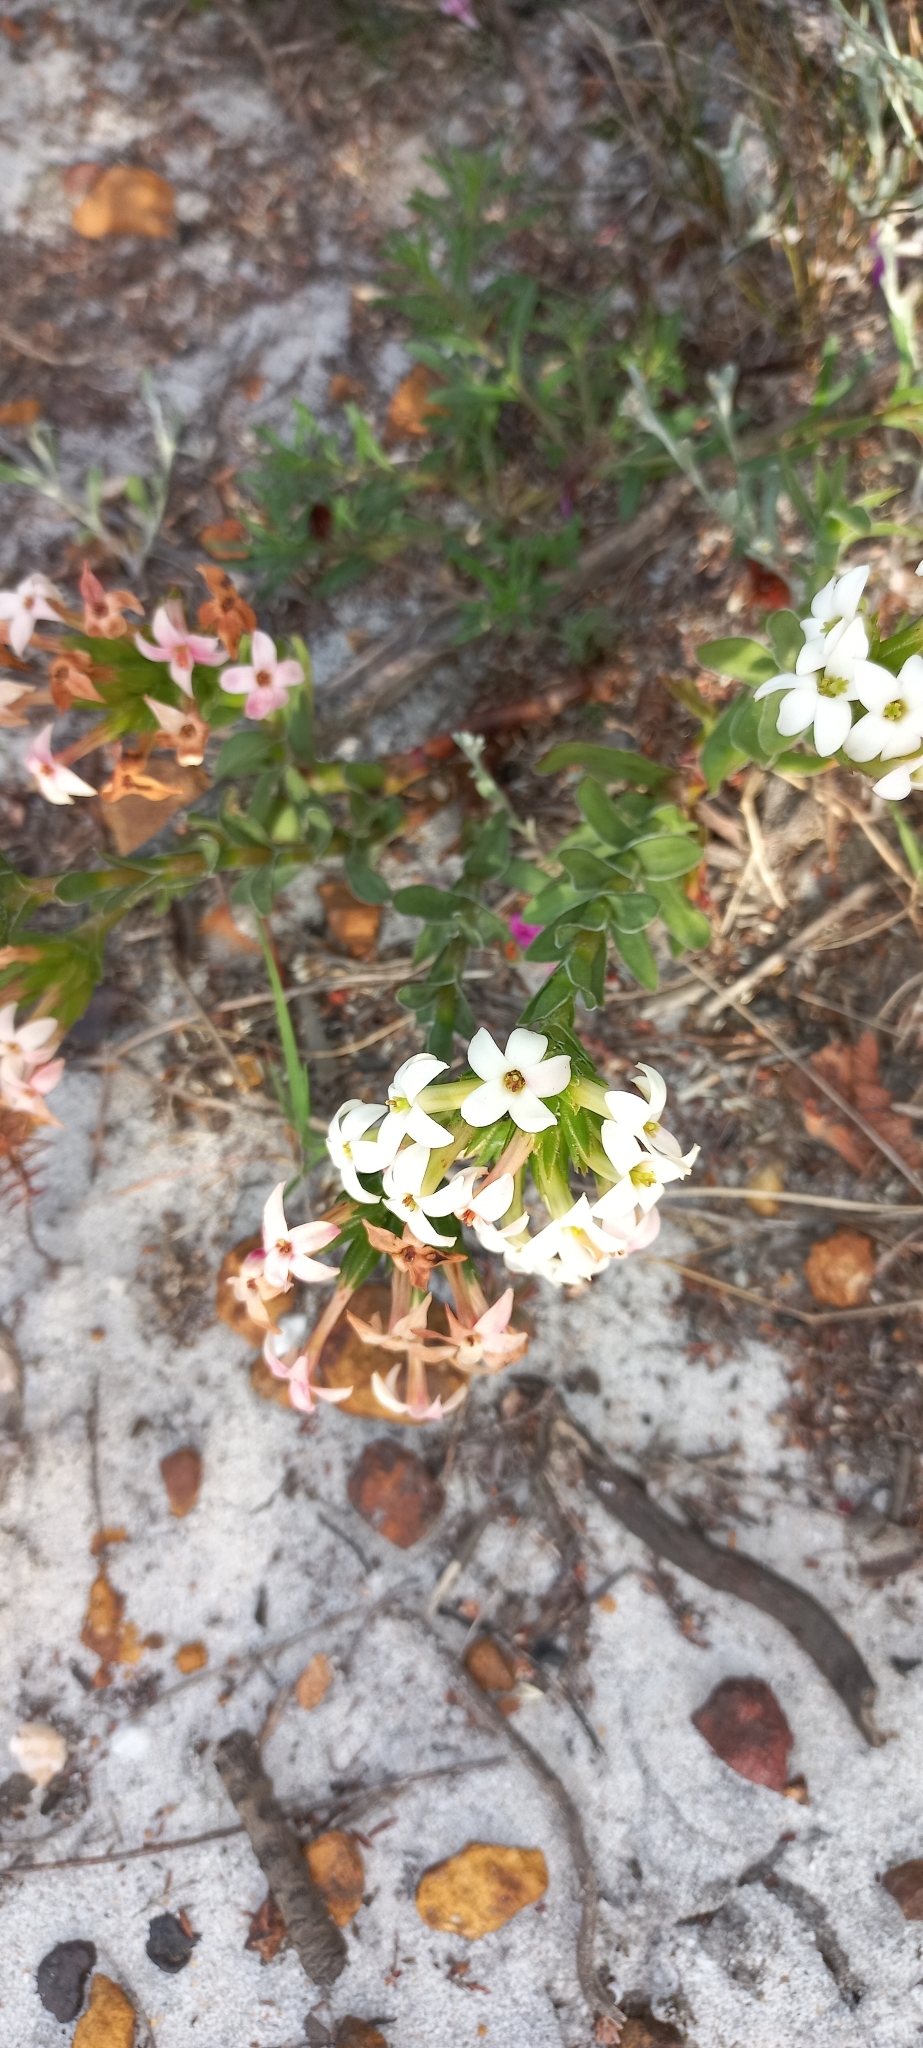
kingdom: Plantae
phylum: Tracheophyta
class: Magnoliopsida
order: Saxifragales
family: Crassulaceae
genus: Crassula
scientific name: Crassula fascicularis
